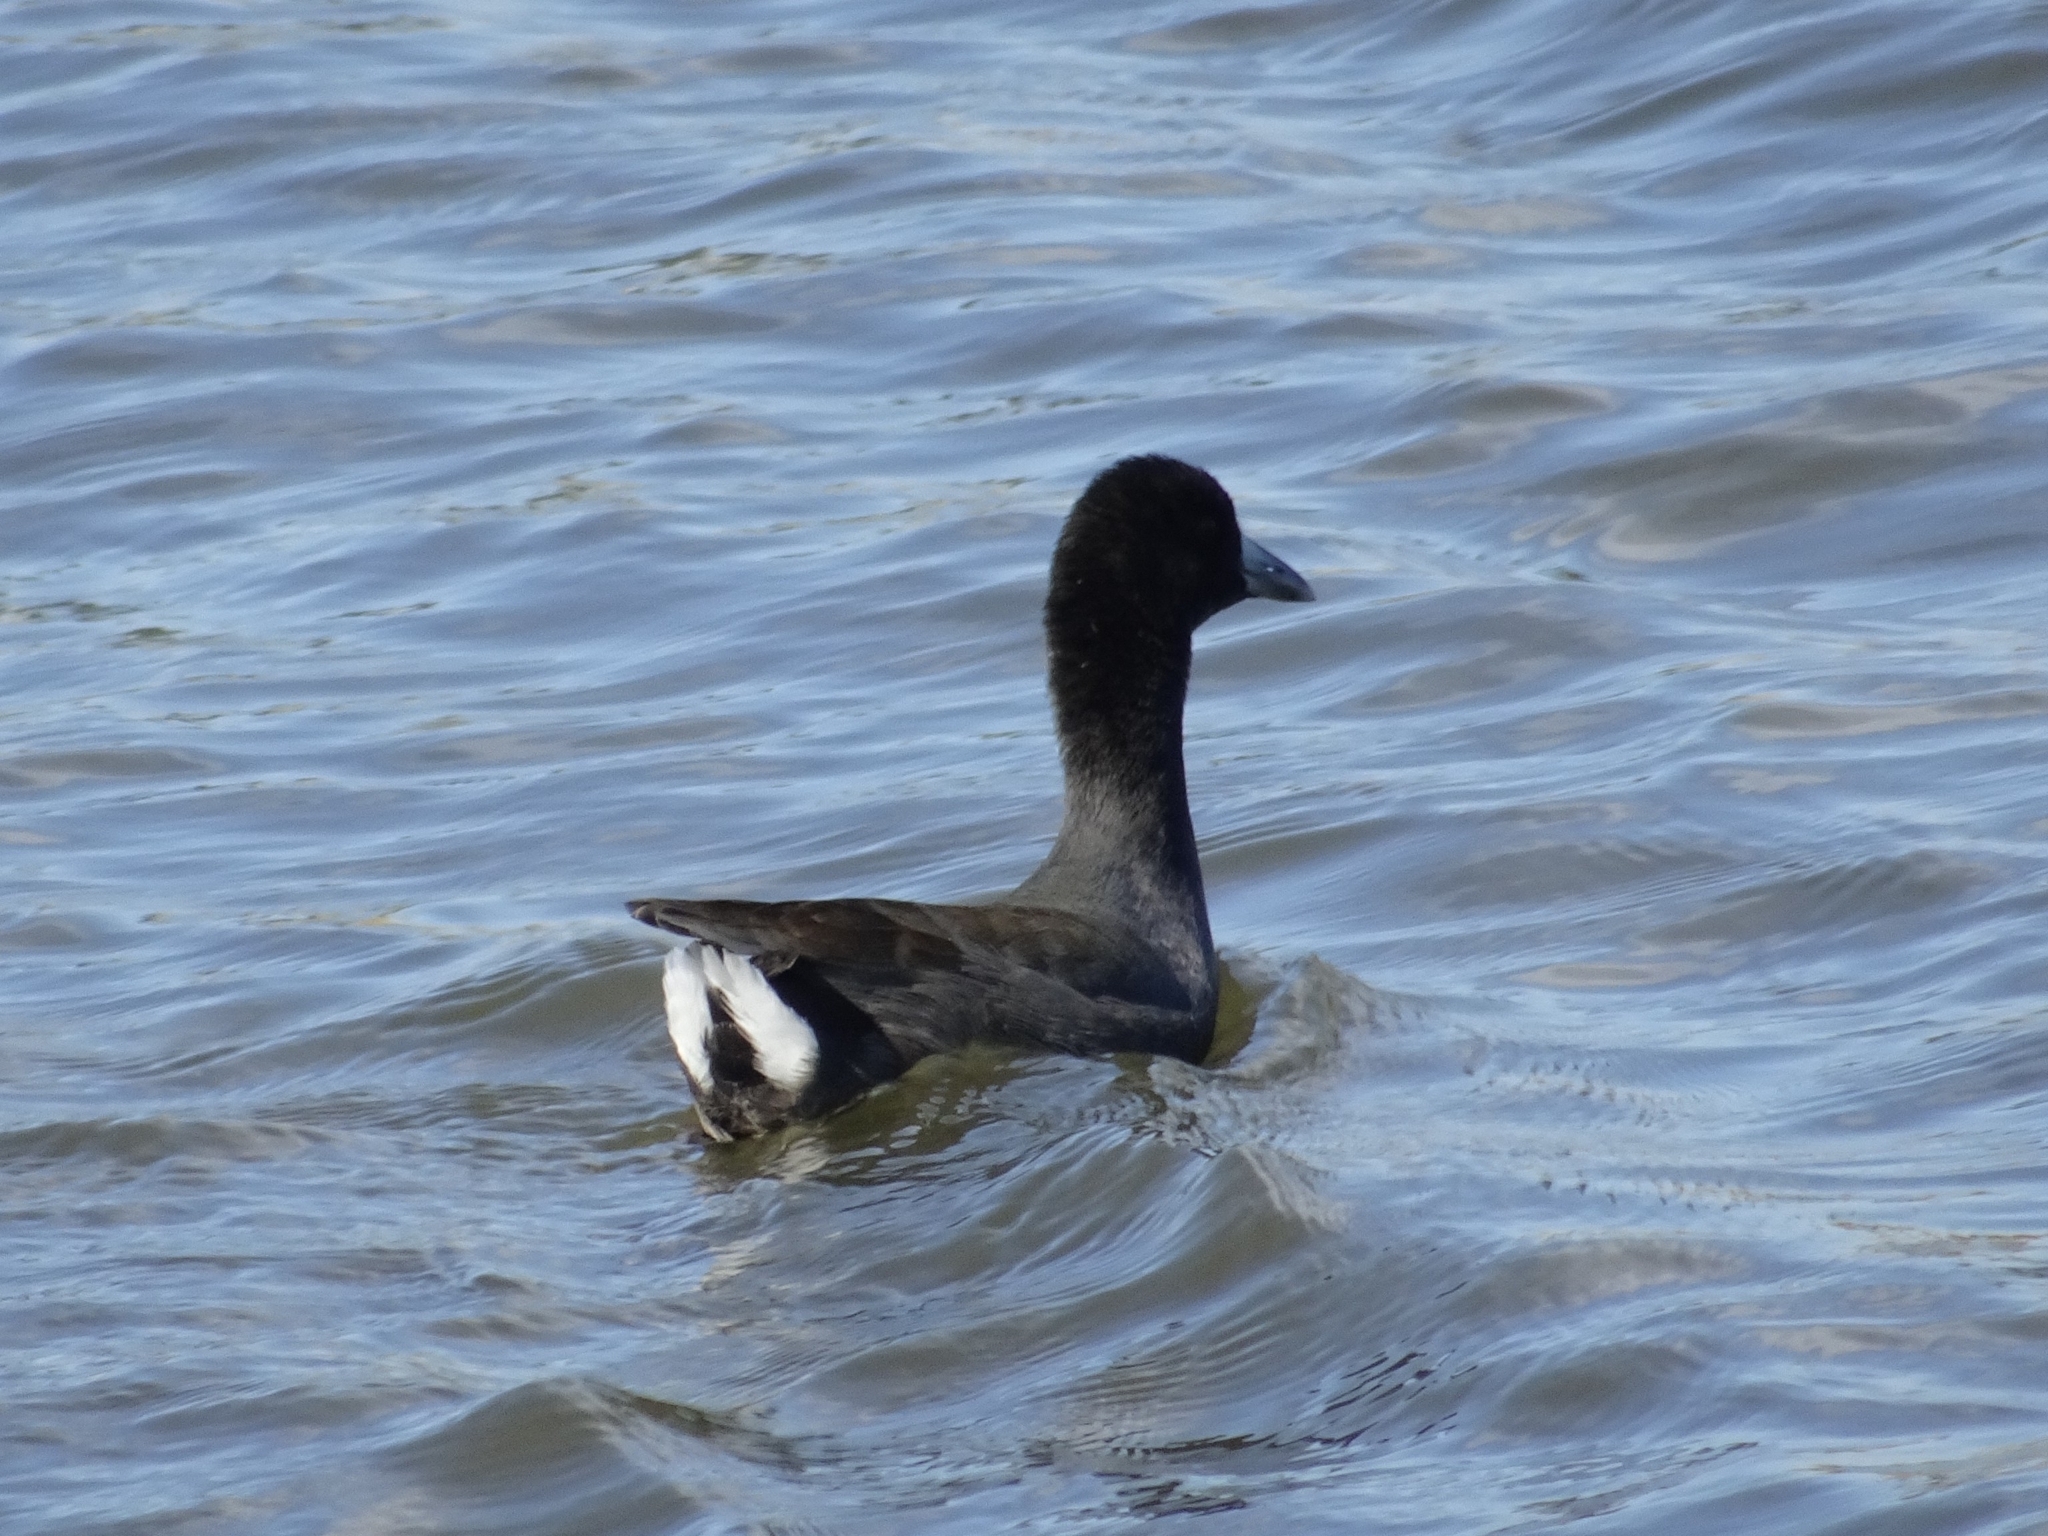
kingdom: Animalia
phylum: Chordata
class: Aves
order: Gruiformes
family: Rallidae
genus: Fulica
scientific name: Fulica americana
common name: American coot
